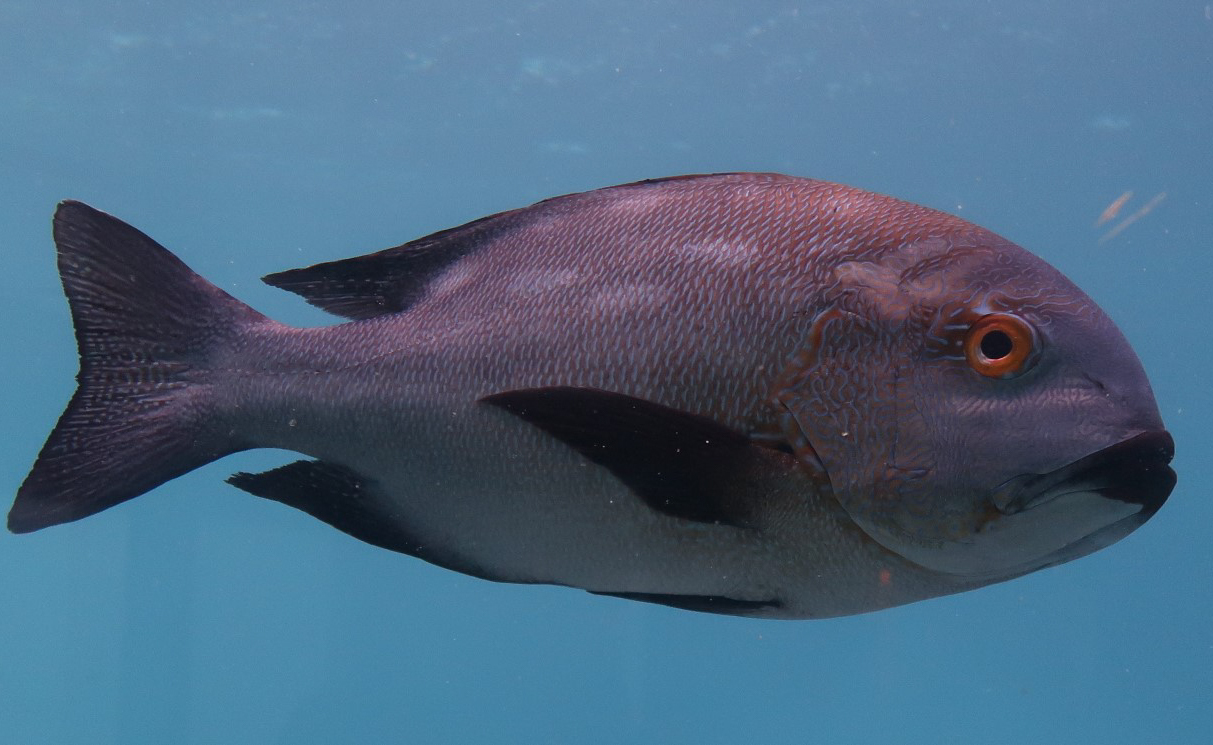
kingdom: Animalia
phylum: Chordata
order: Perciformes
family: Lutjanidae
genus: Macolor
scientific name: Macolor macularis
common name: Midnight snapper
